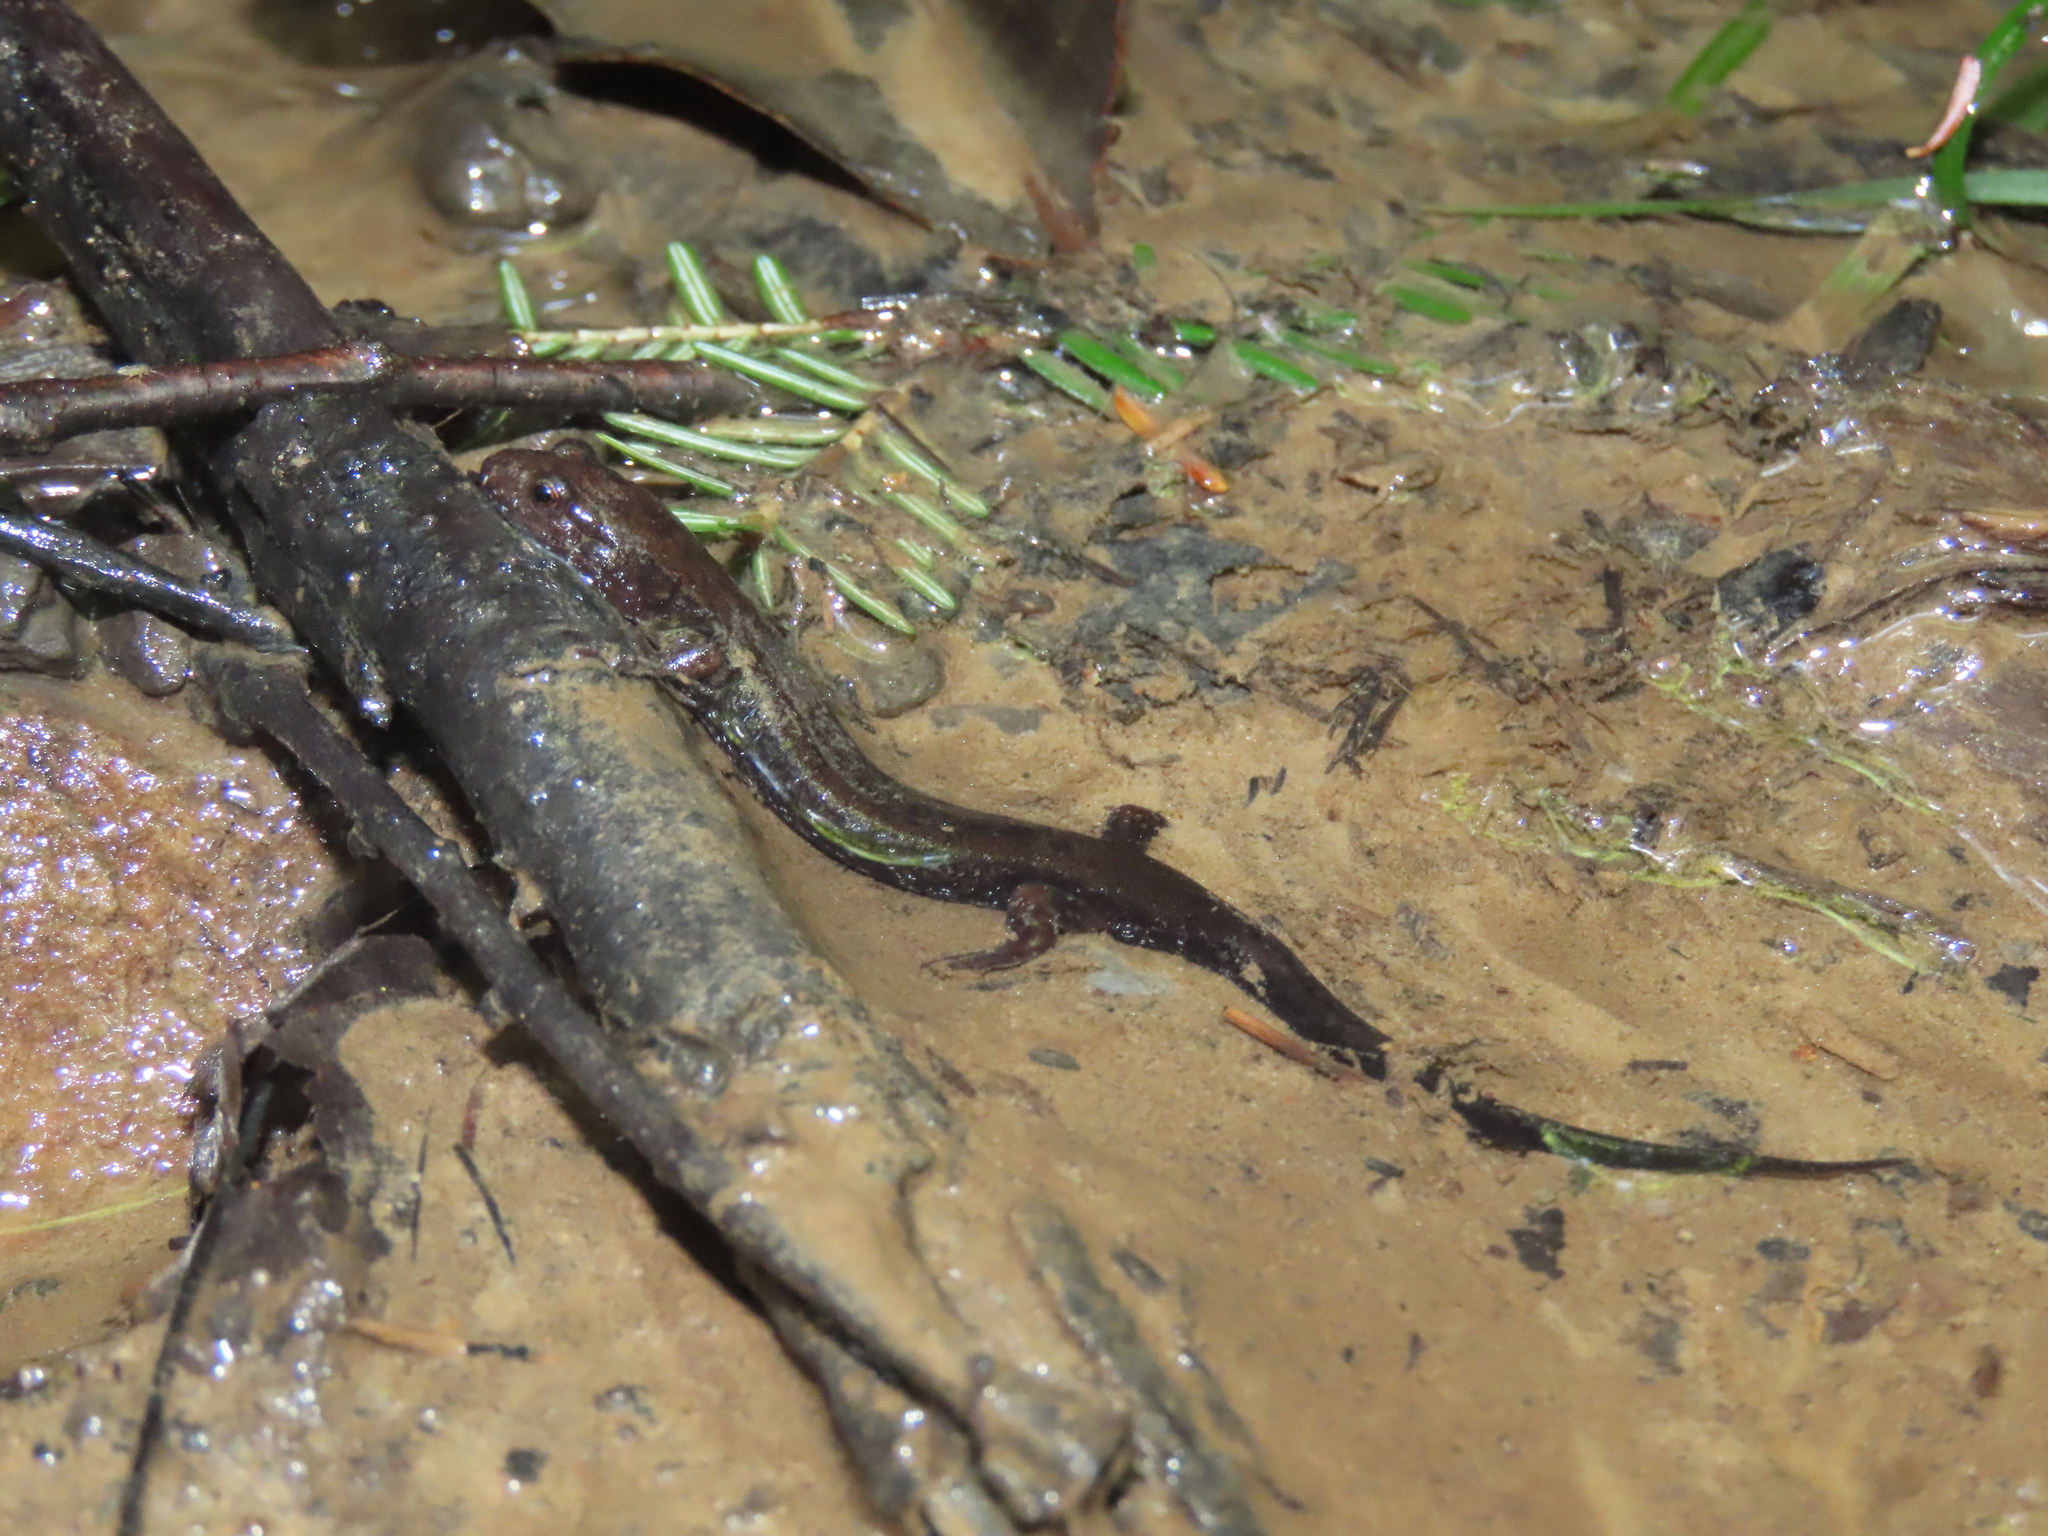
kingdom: Animalia
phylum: Chordata
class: Amphibia
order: Caudata
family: Plethodontidae
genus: Desmognathus
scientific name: Desmognathus ochrophaeus
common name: Allegheny mountain dusky salamander
